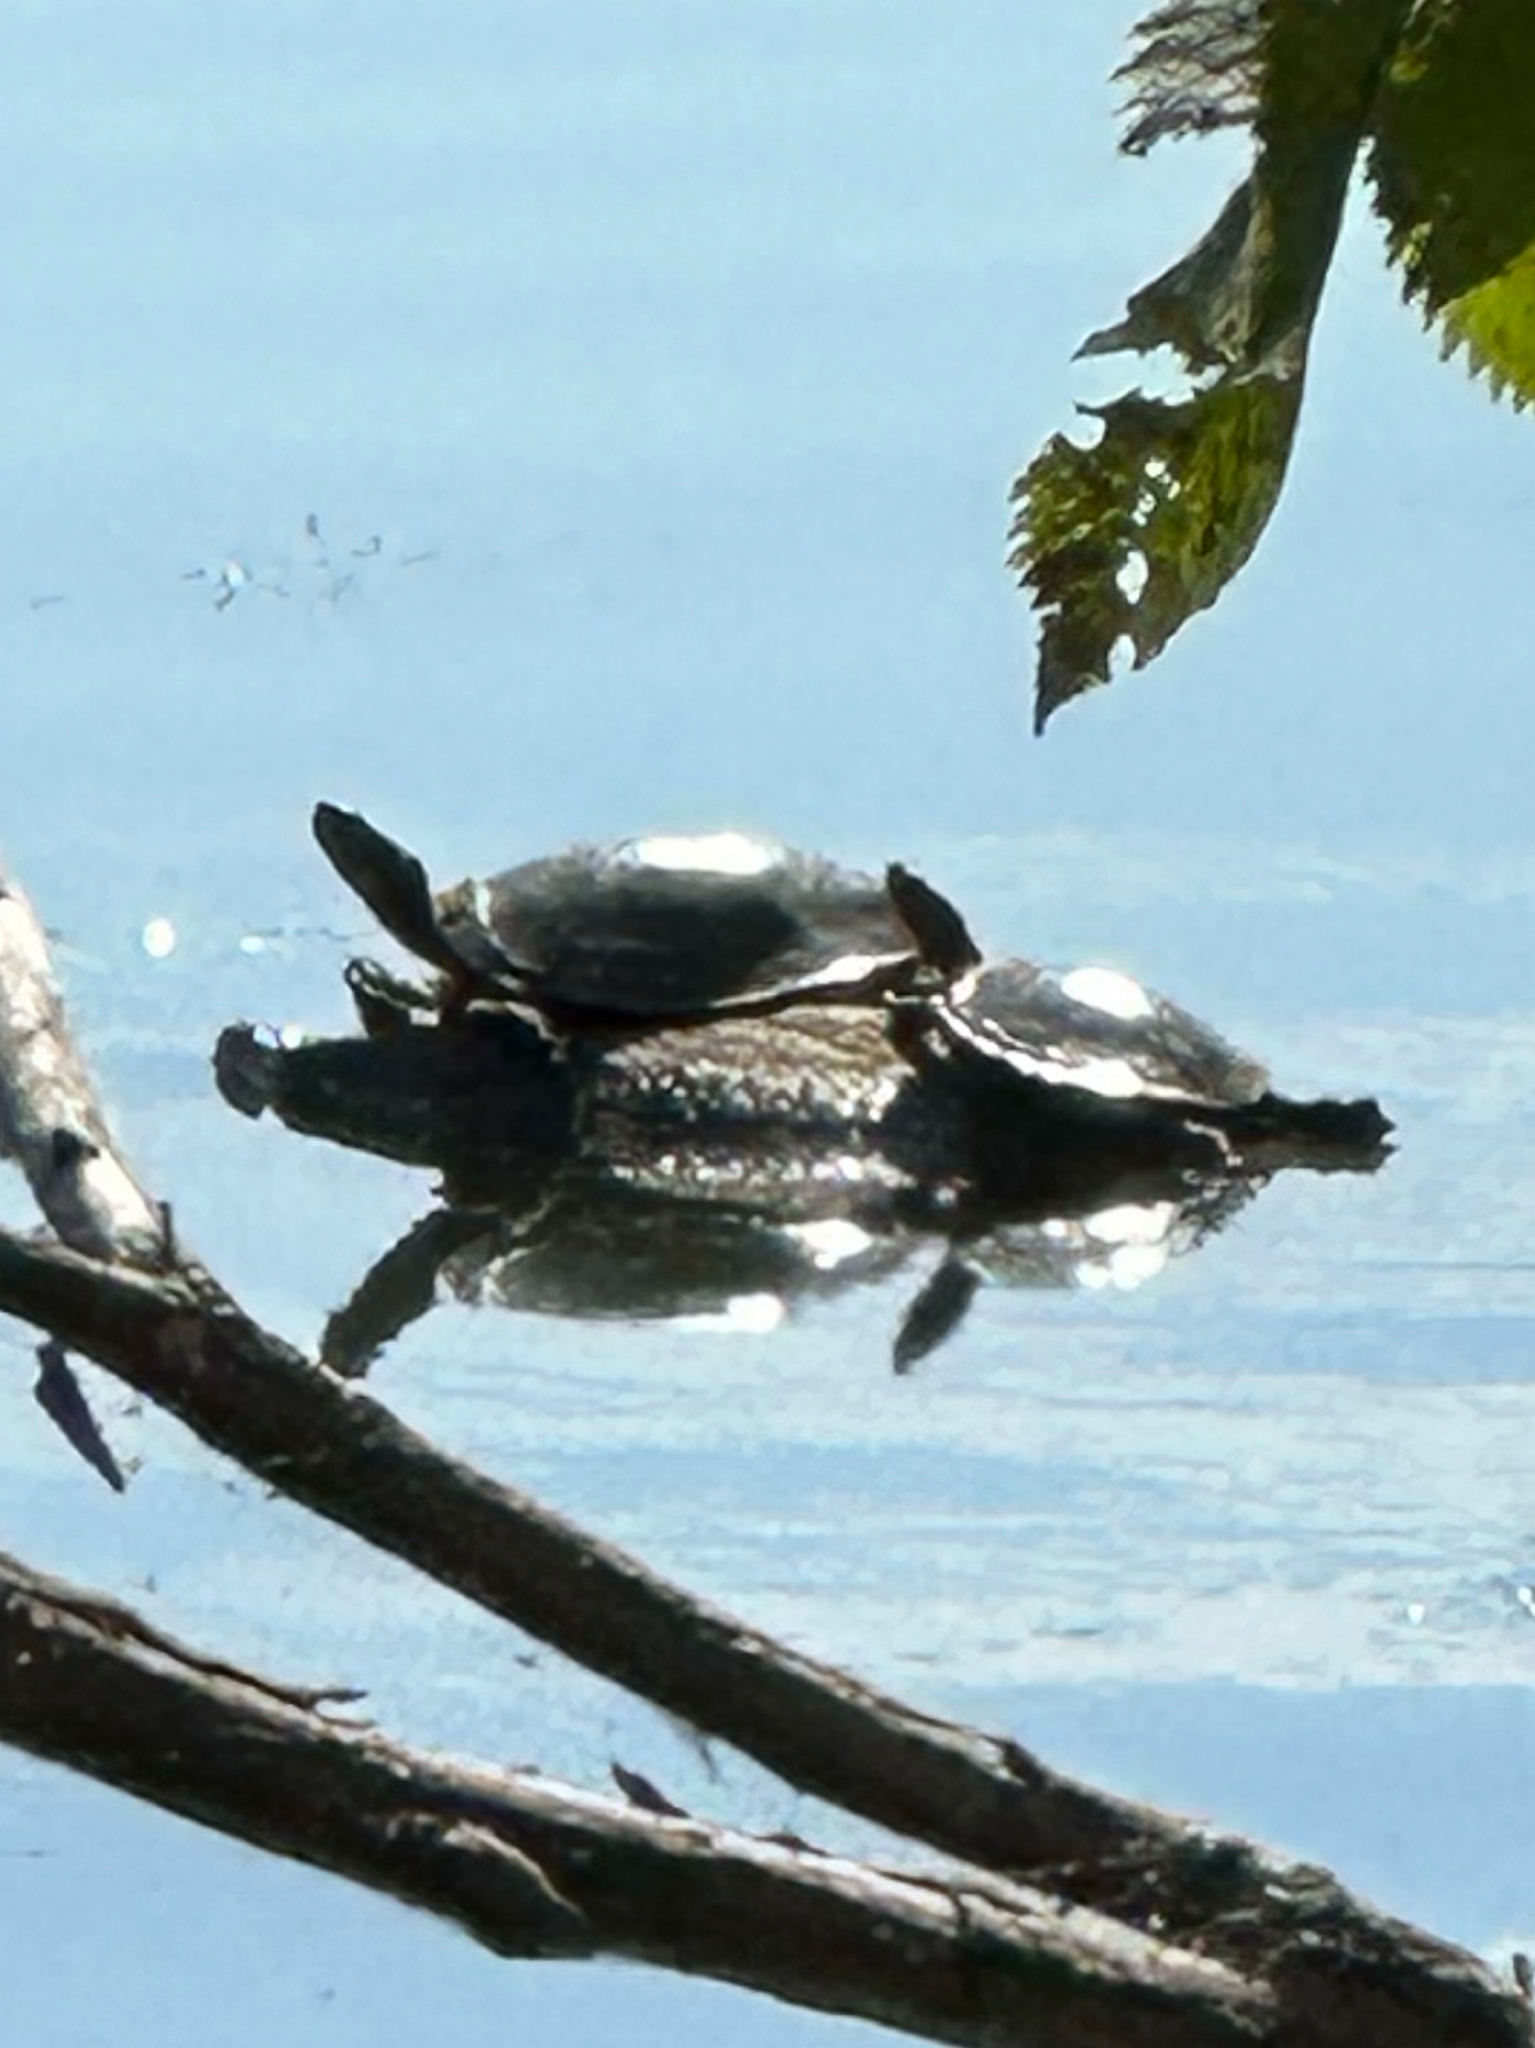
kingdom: Animalia
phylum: Chordata
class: Testudines
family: Emydidae
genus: Chrysemys
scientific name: Chrysemys picta
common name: Painted turtle
